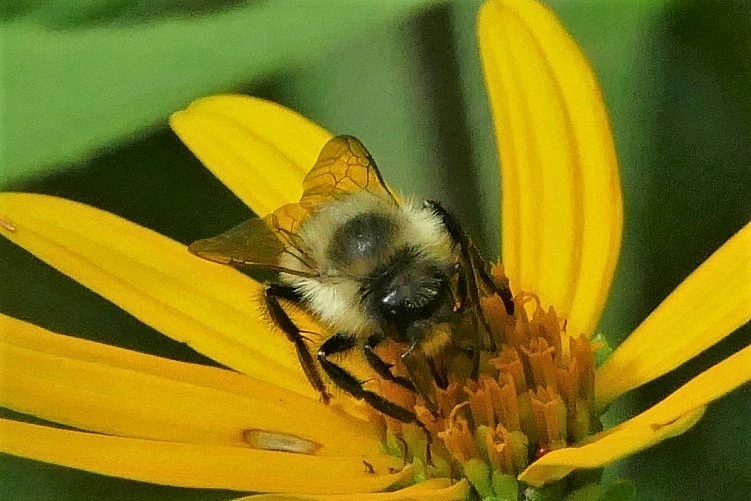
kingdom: Animalia
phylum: Arthropoda
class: Insecta
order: Hymenoptera
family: Apidae
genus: Bombus
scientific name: Bombus impatiens
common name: Common eastern bumble bee
